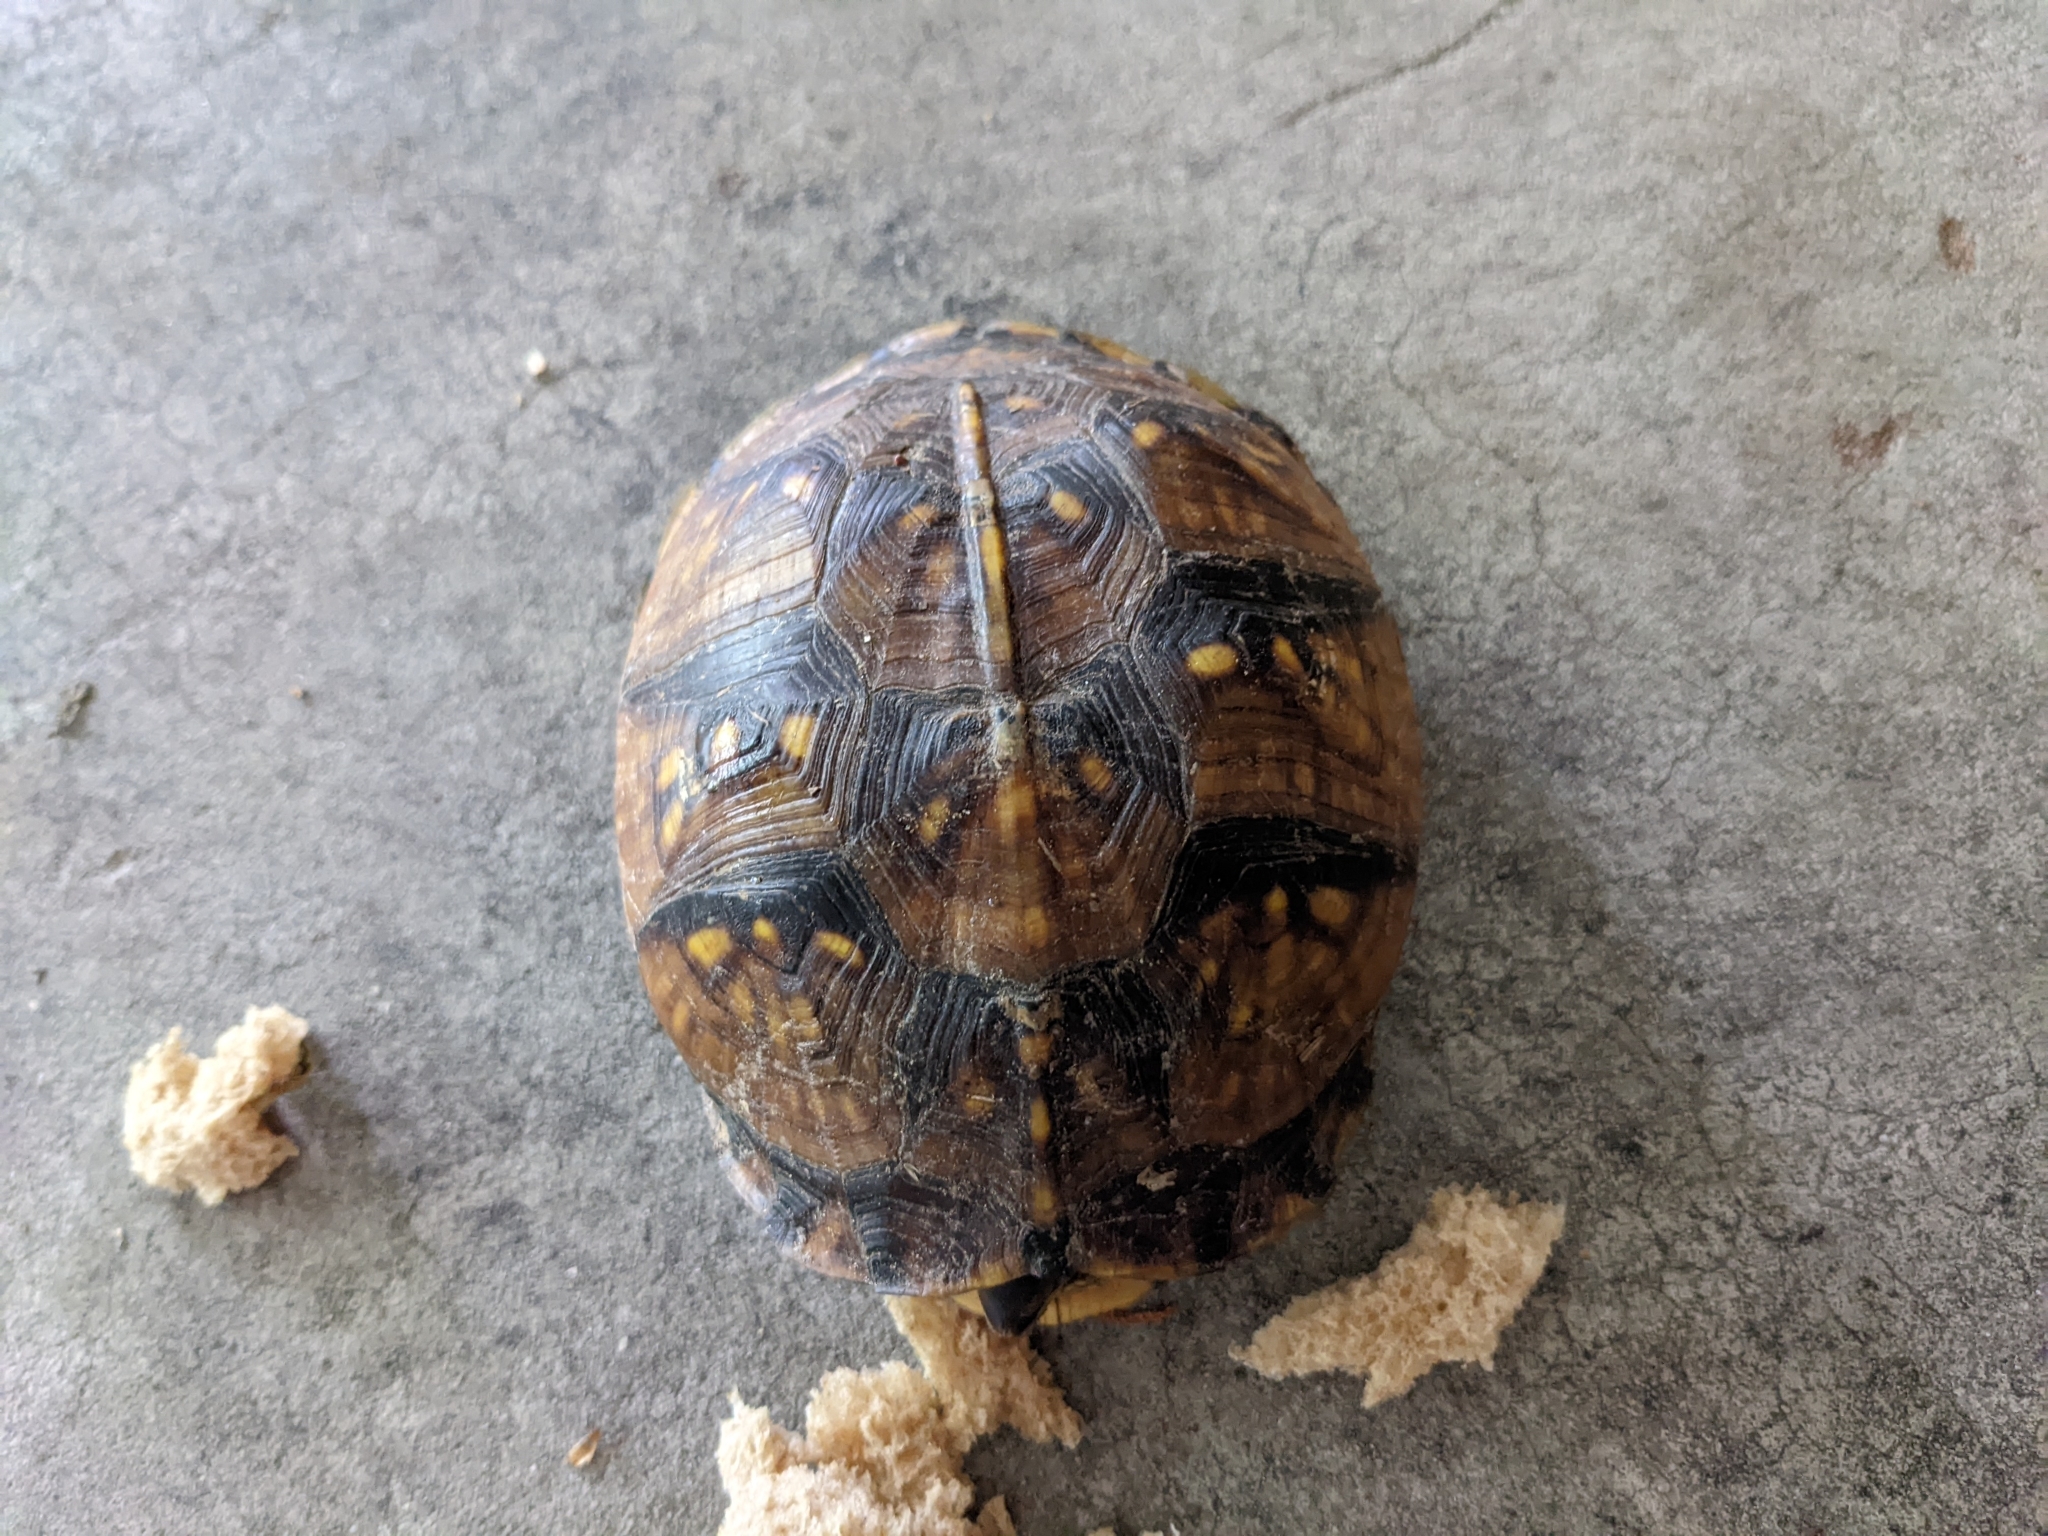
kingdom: Animalia
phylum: Chordata
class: Testudines
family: Emydidae
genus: Terrapene
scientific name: Terrapene carolina
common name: Common box turtle
